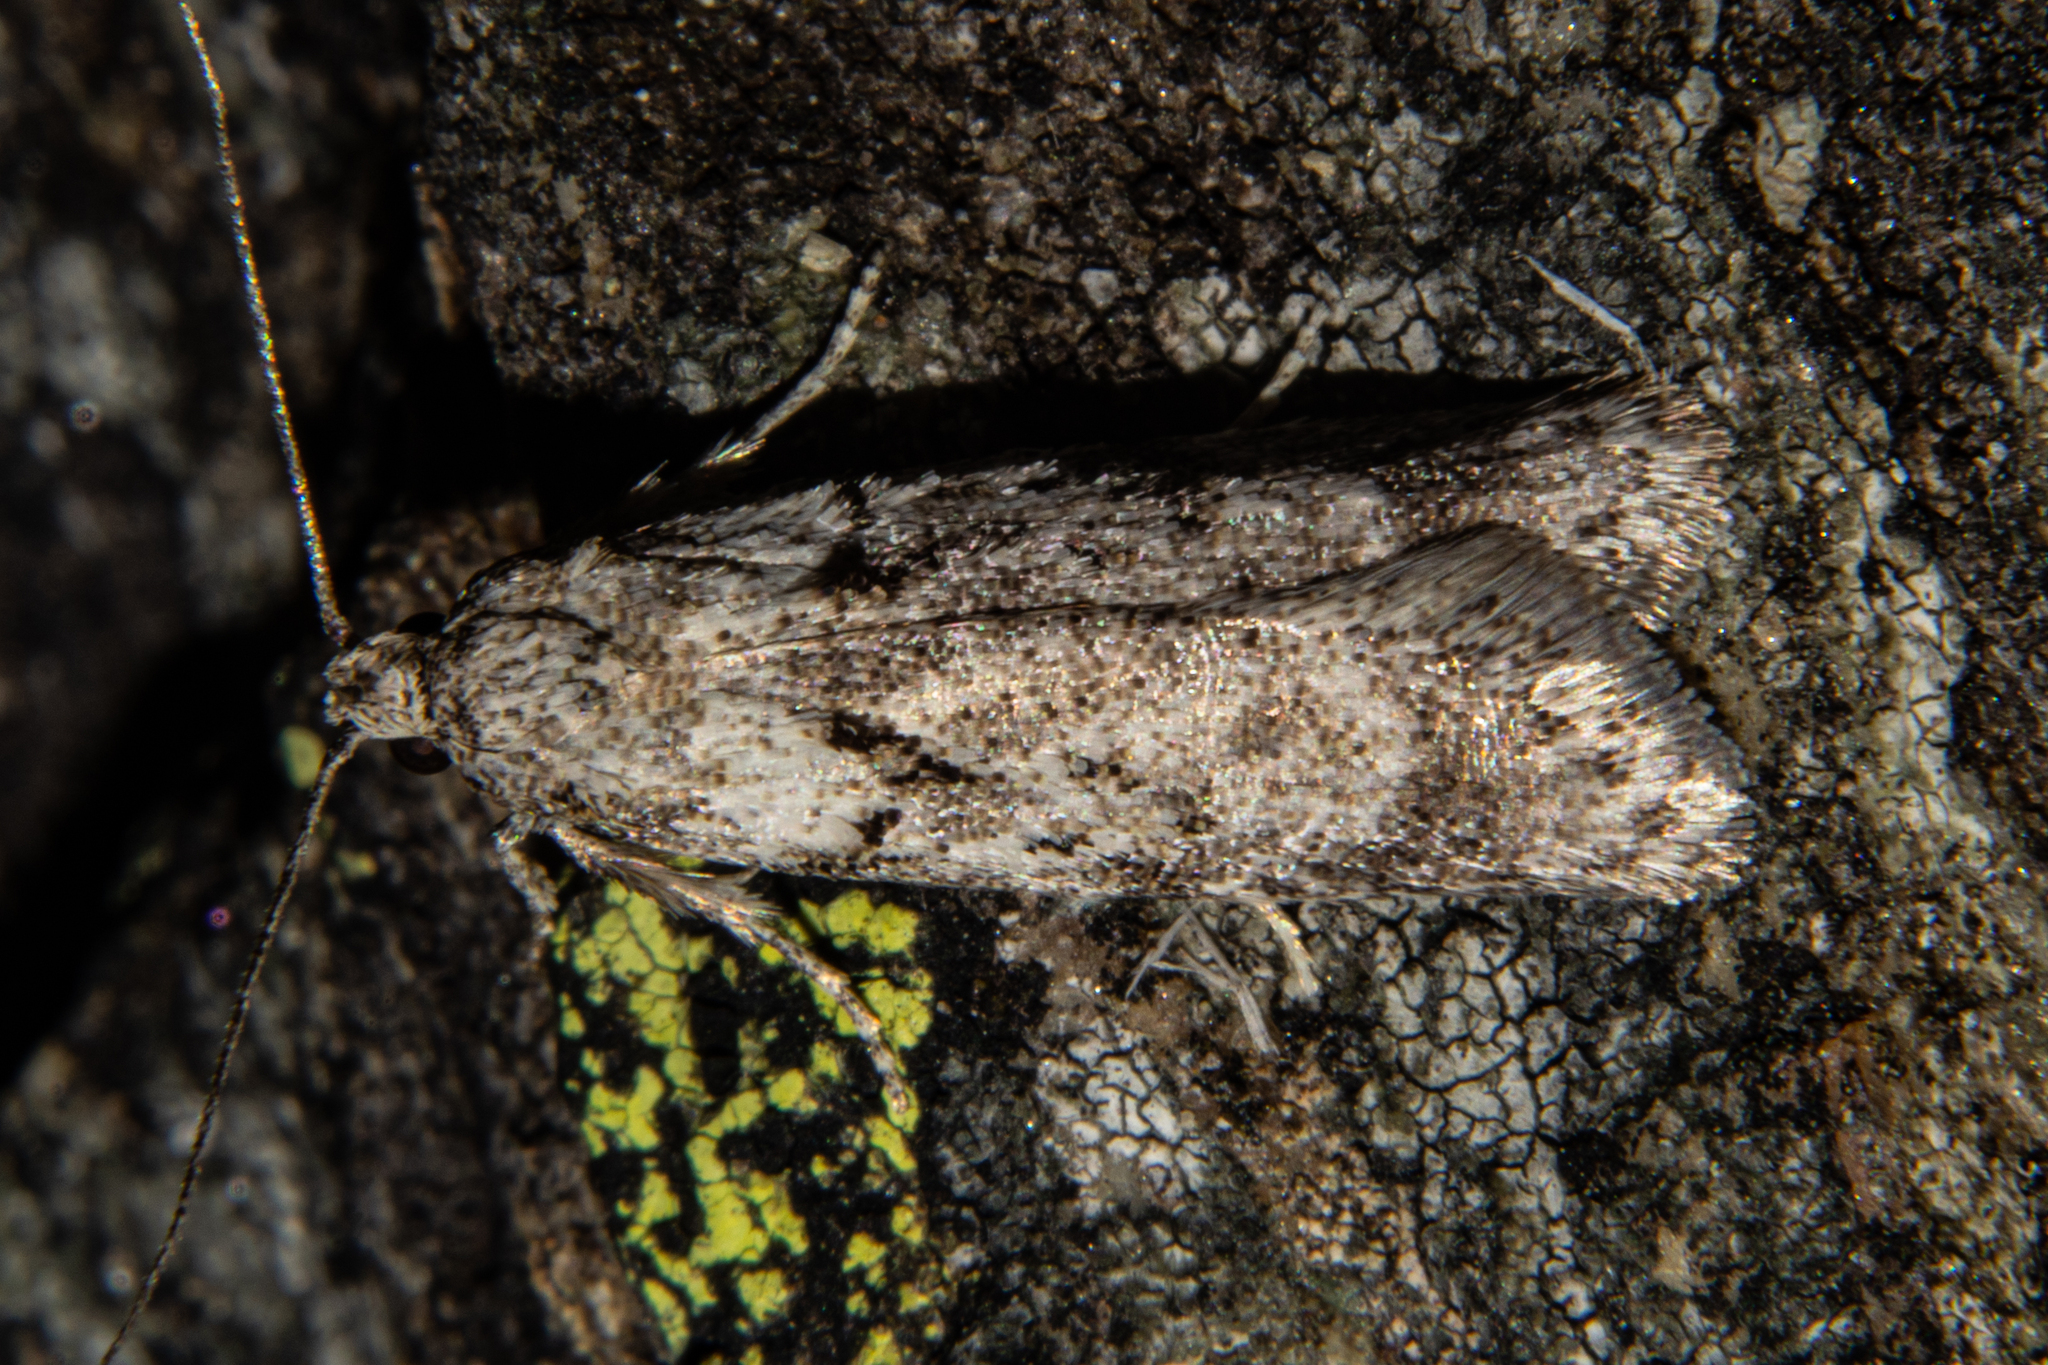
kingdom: Animalia
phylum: Arthropoda
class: Insecta
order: Lepidoptera
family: Oecophoridae
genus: Izatha
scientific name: Izatha convulsella
